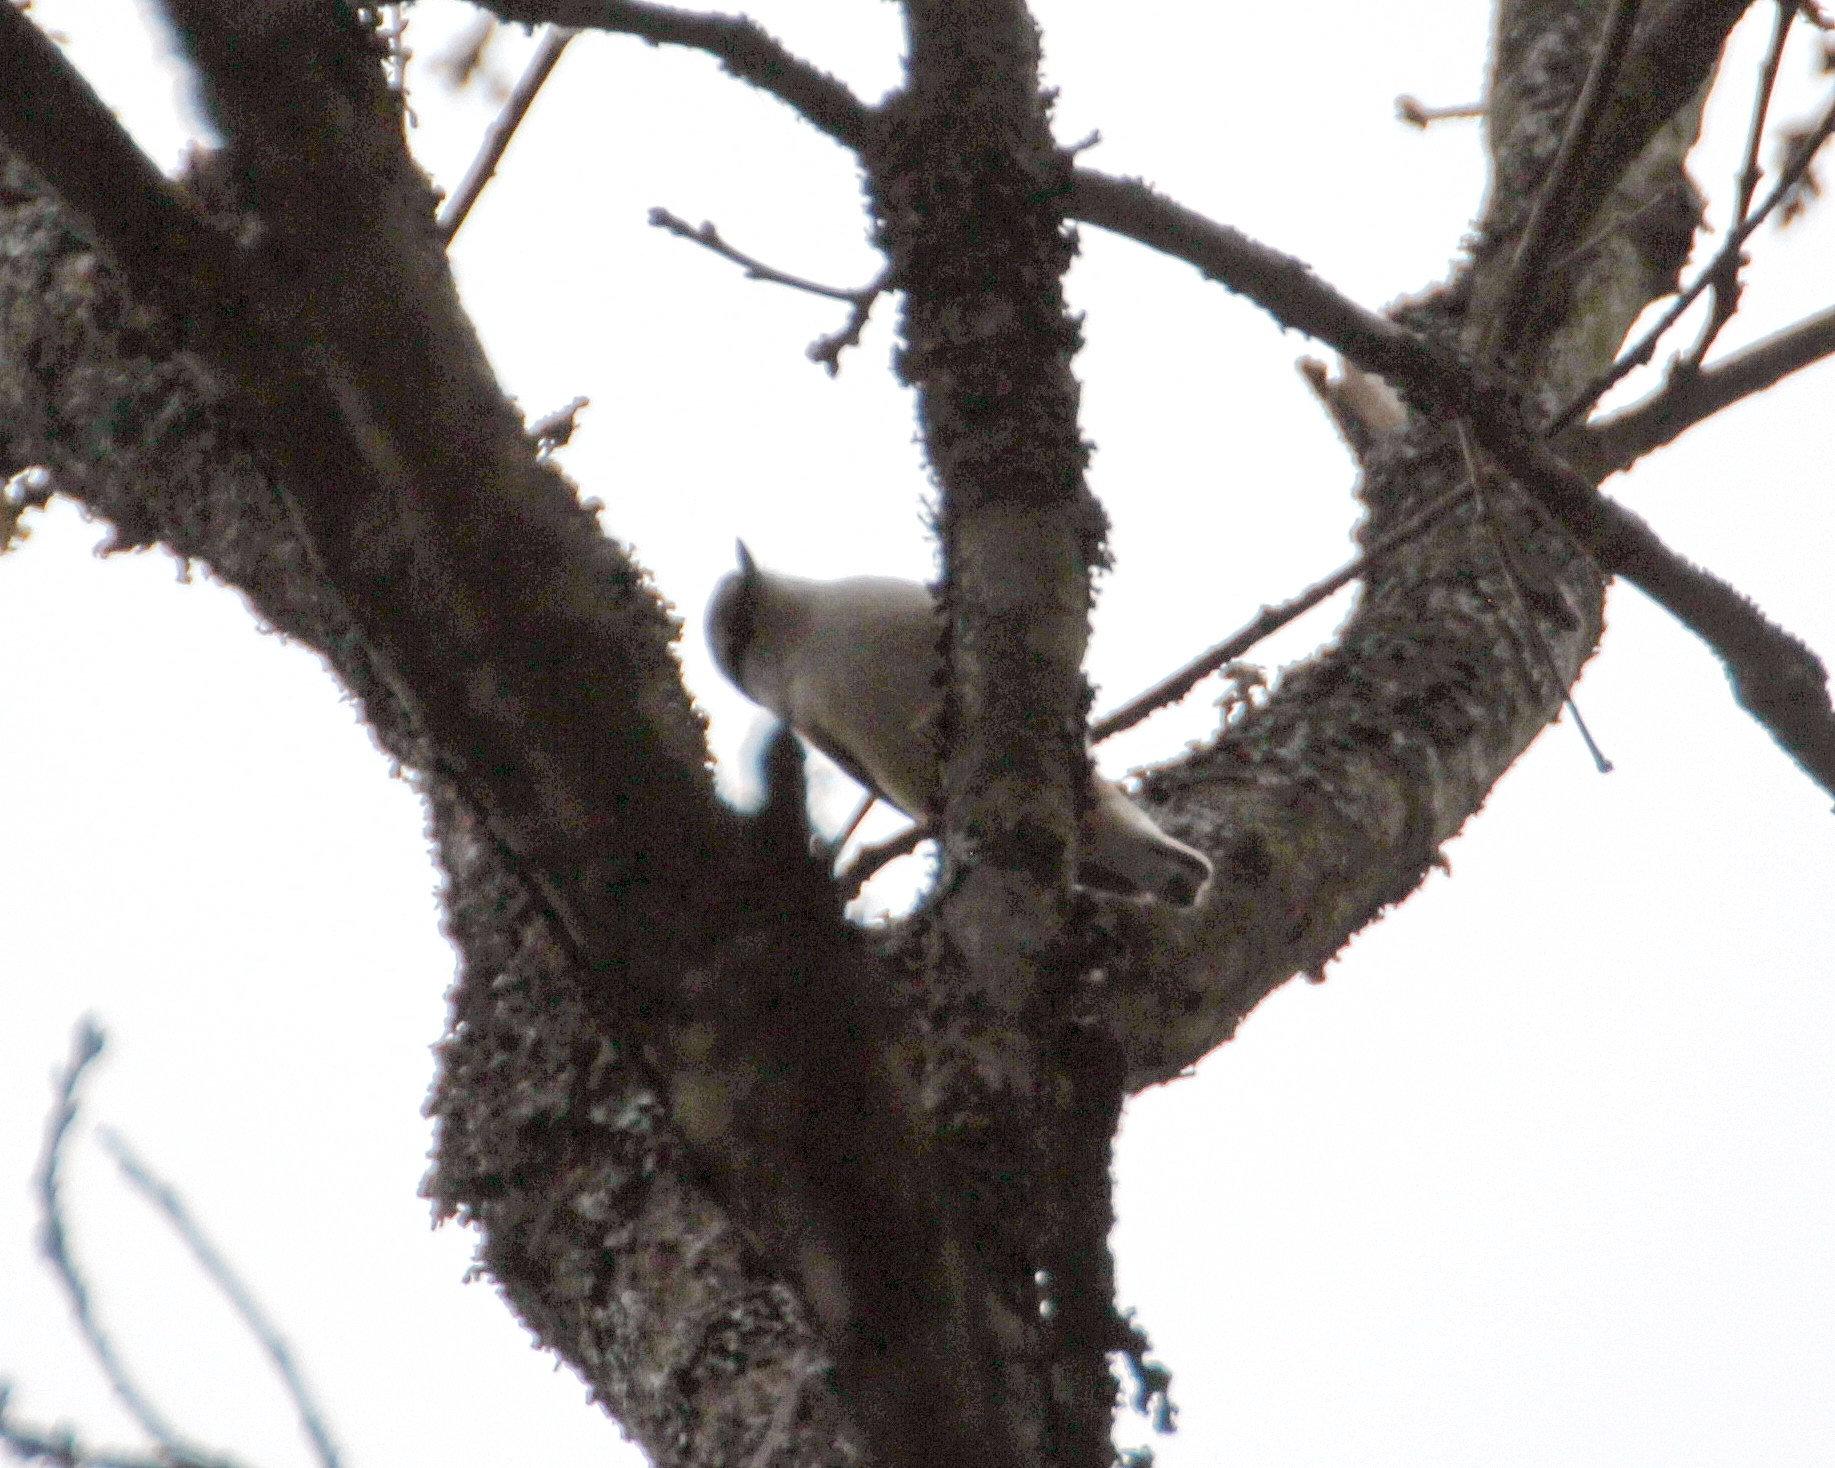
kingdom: Animalia
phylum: Chordata
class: Aves
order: Passeriformes
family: Sittidae
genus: Sitta
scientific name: Sitta europaea
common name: Eurasian nuthatch
